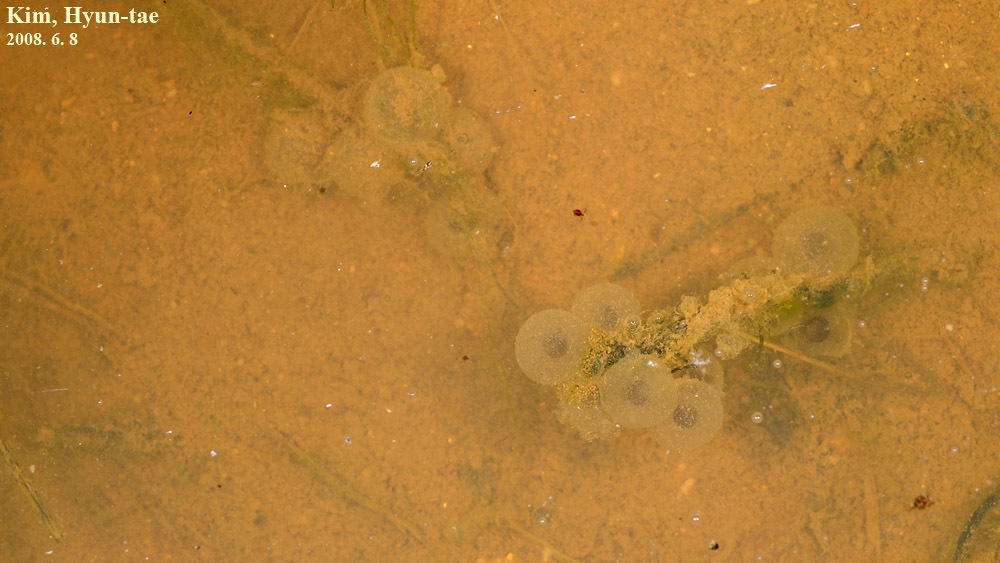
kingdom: Animalia
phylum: Chordata
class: Amphibia
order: Anura
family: Bombinatoridae
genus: Bombina
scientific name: Bombina orientalis
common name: Oriental firebelly toad
